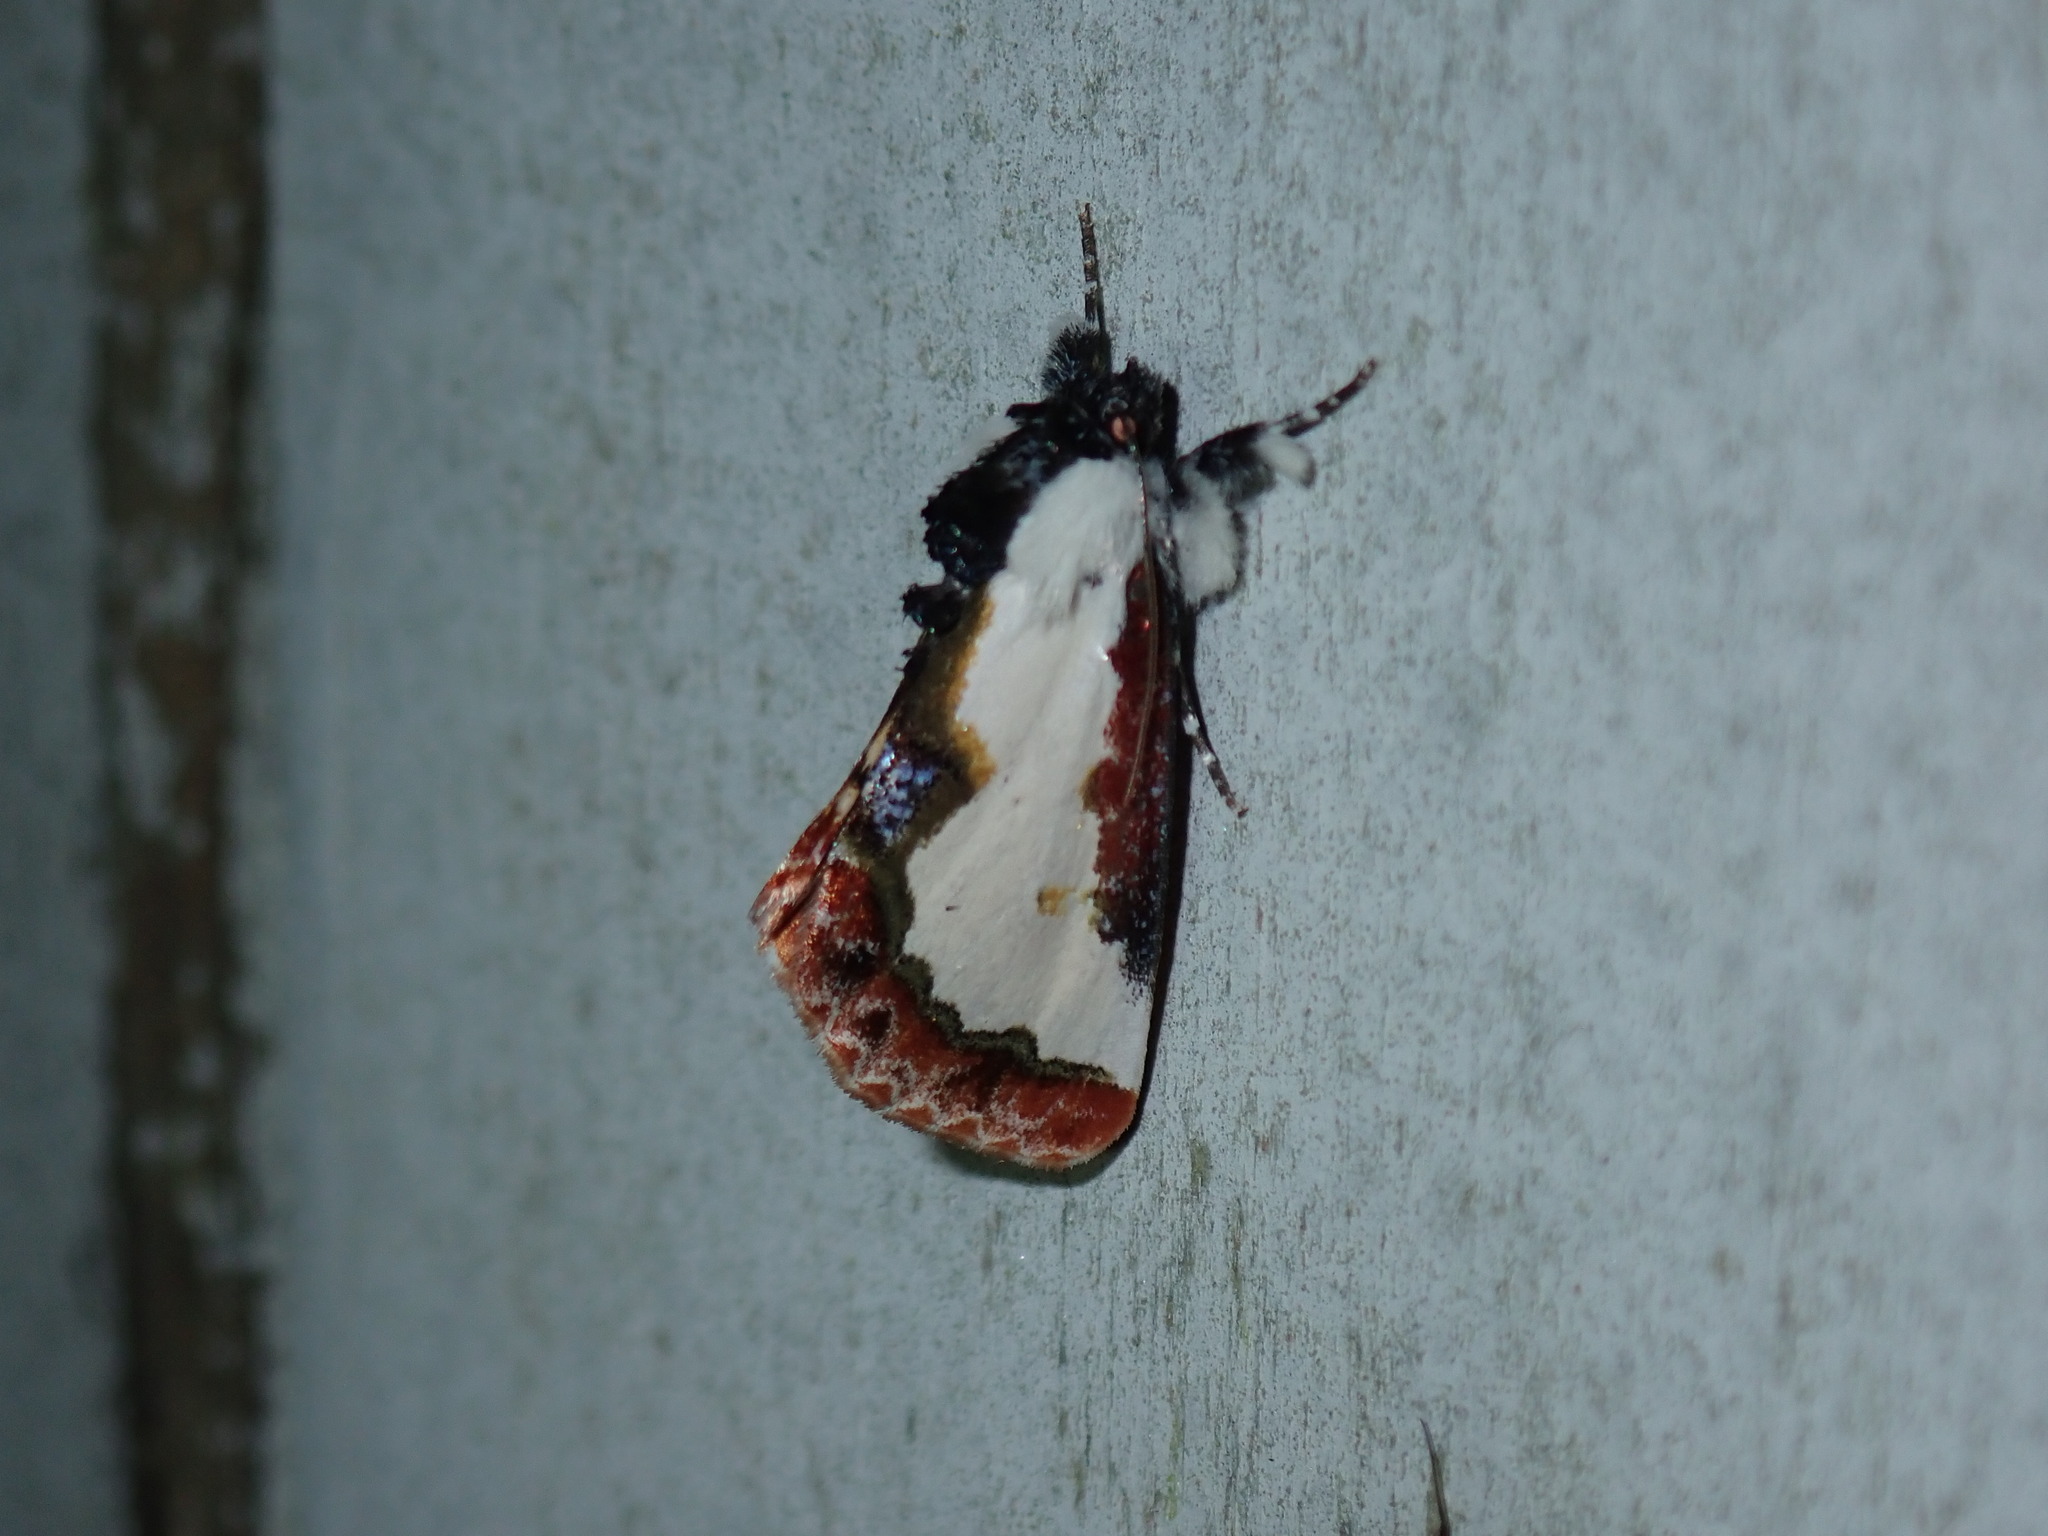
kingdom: Animalia
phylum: Arthropoda
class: Insecta
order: Lepidoptera
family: Noctuidae
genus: Eudryas
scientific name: Eudryas unio
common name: Pearly wood-nymph
